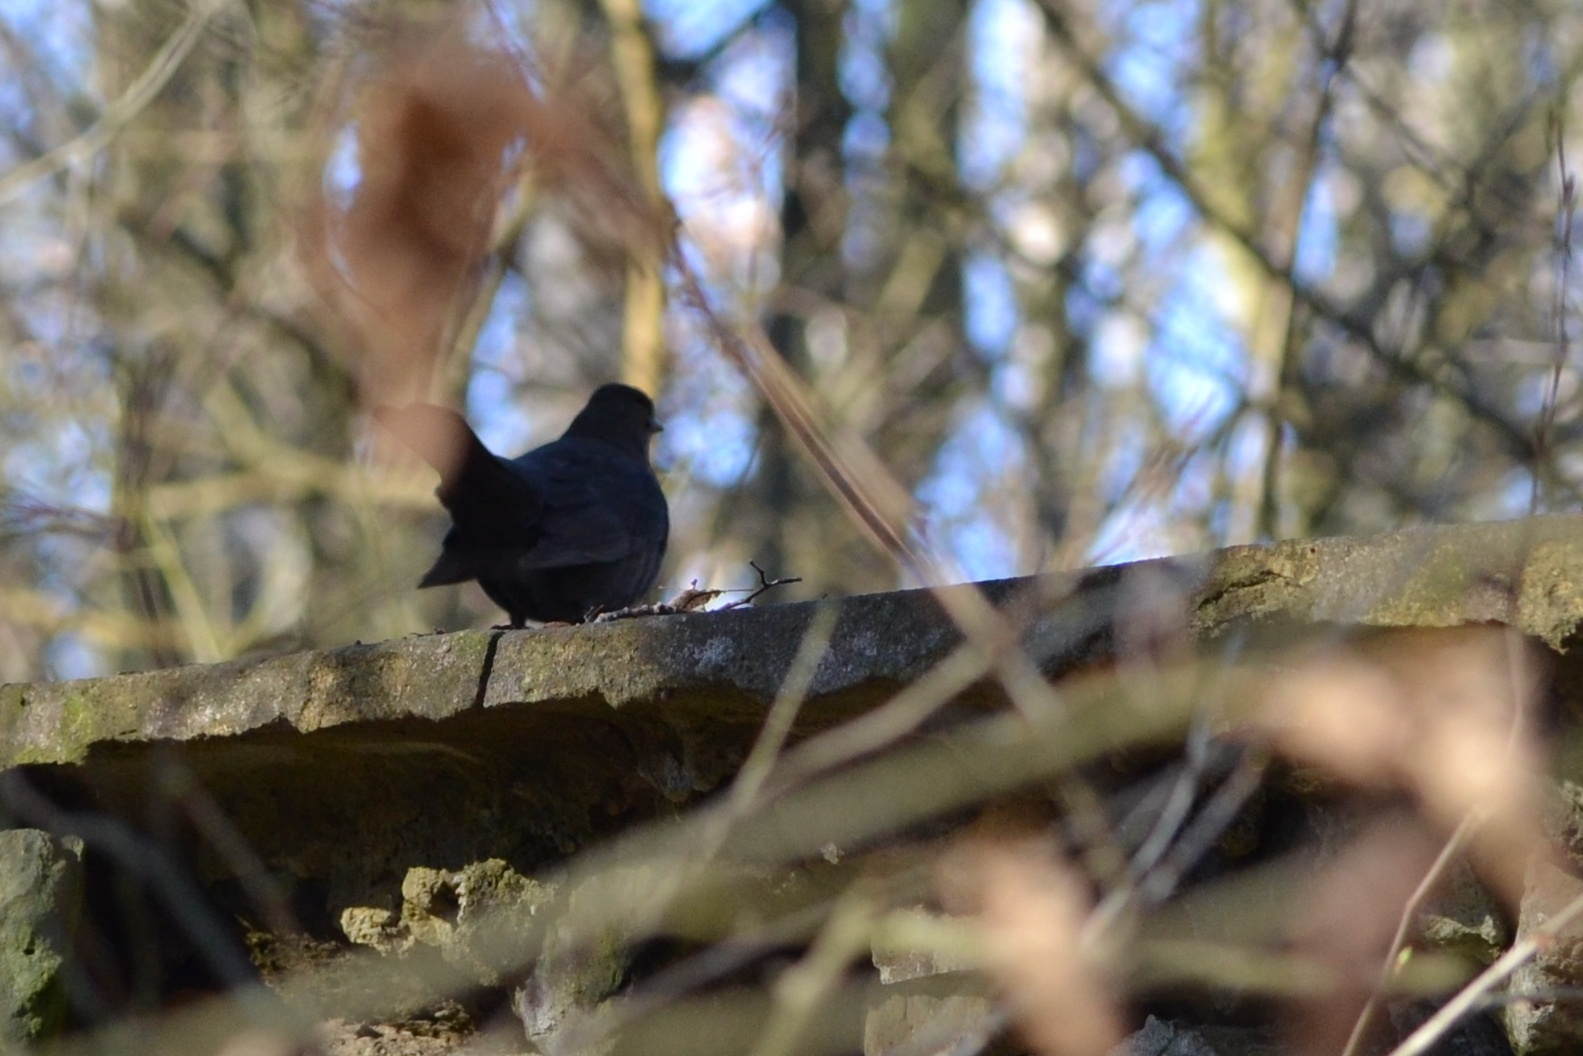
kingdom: Animalia
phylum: Chordata
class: Aves
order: Passeriformes
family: Turdidae
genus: Turdus
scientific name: Turdus merula
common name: Common blackbird
